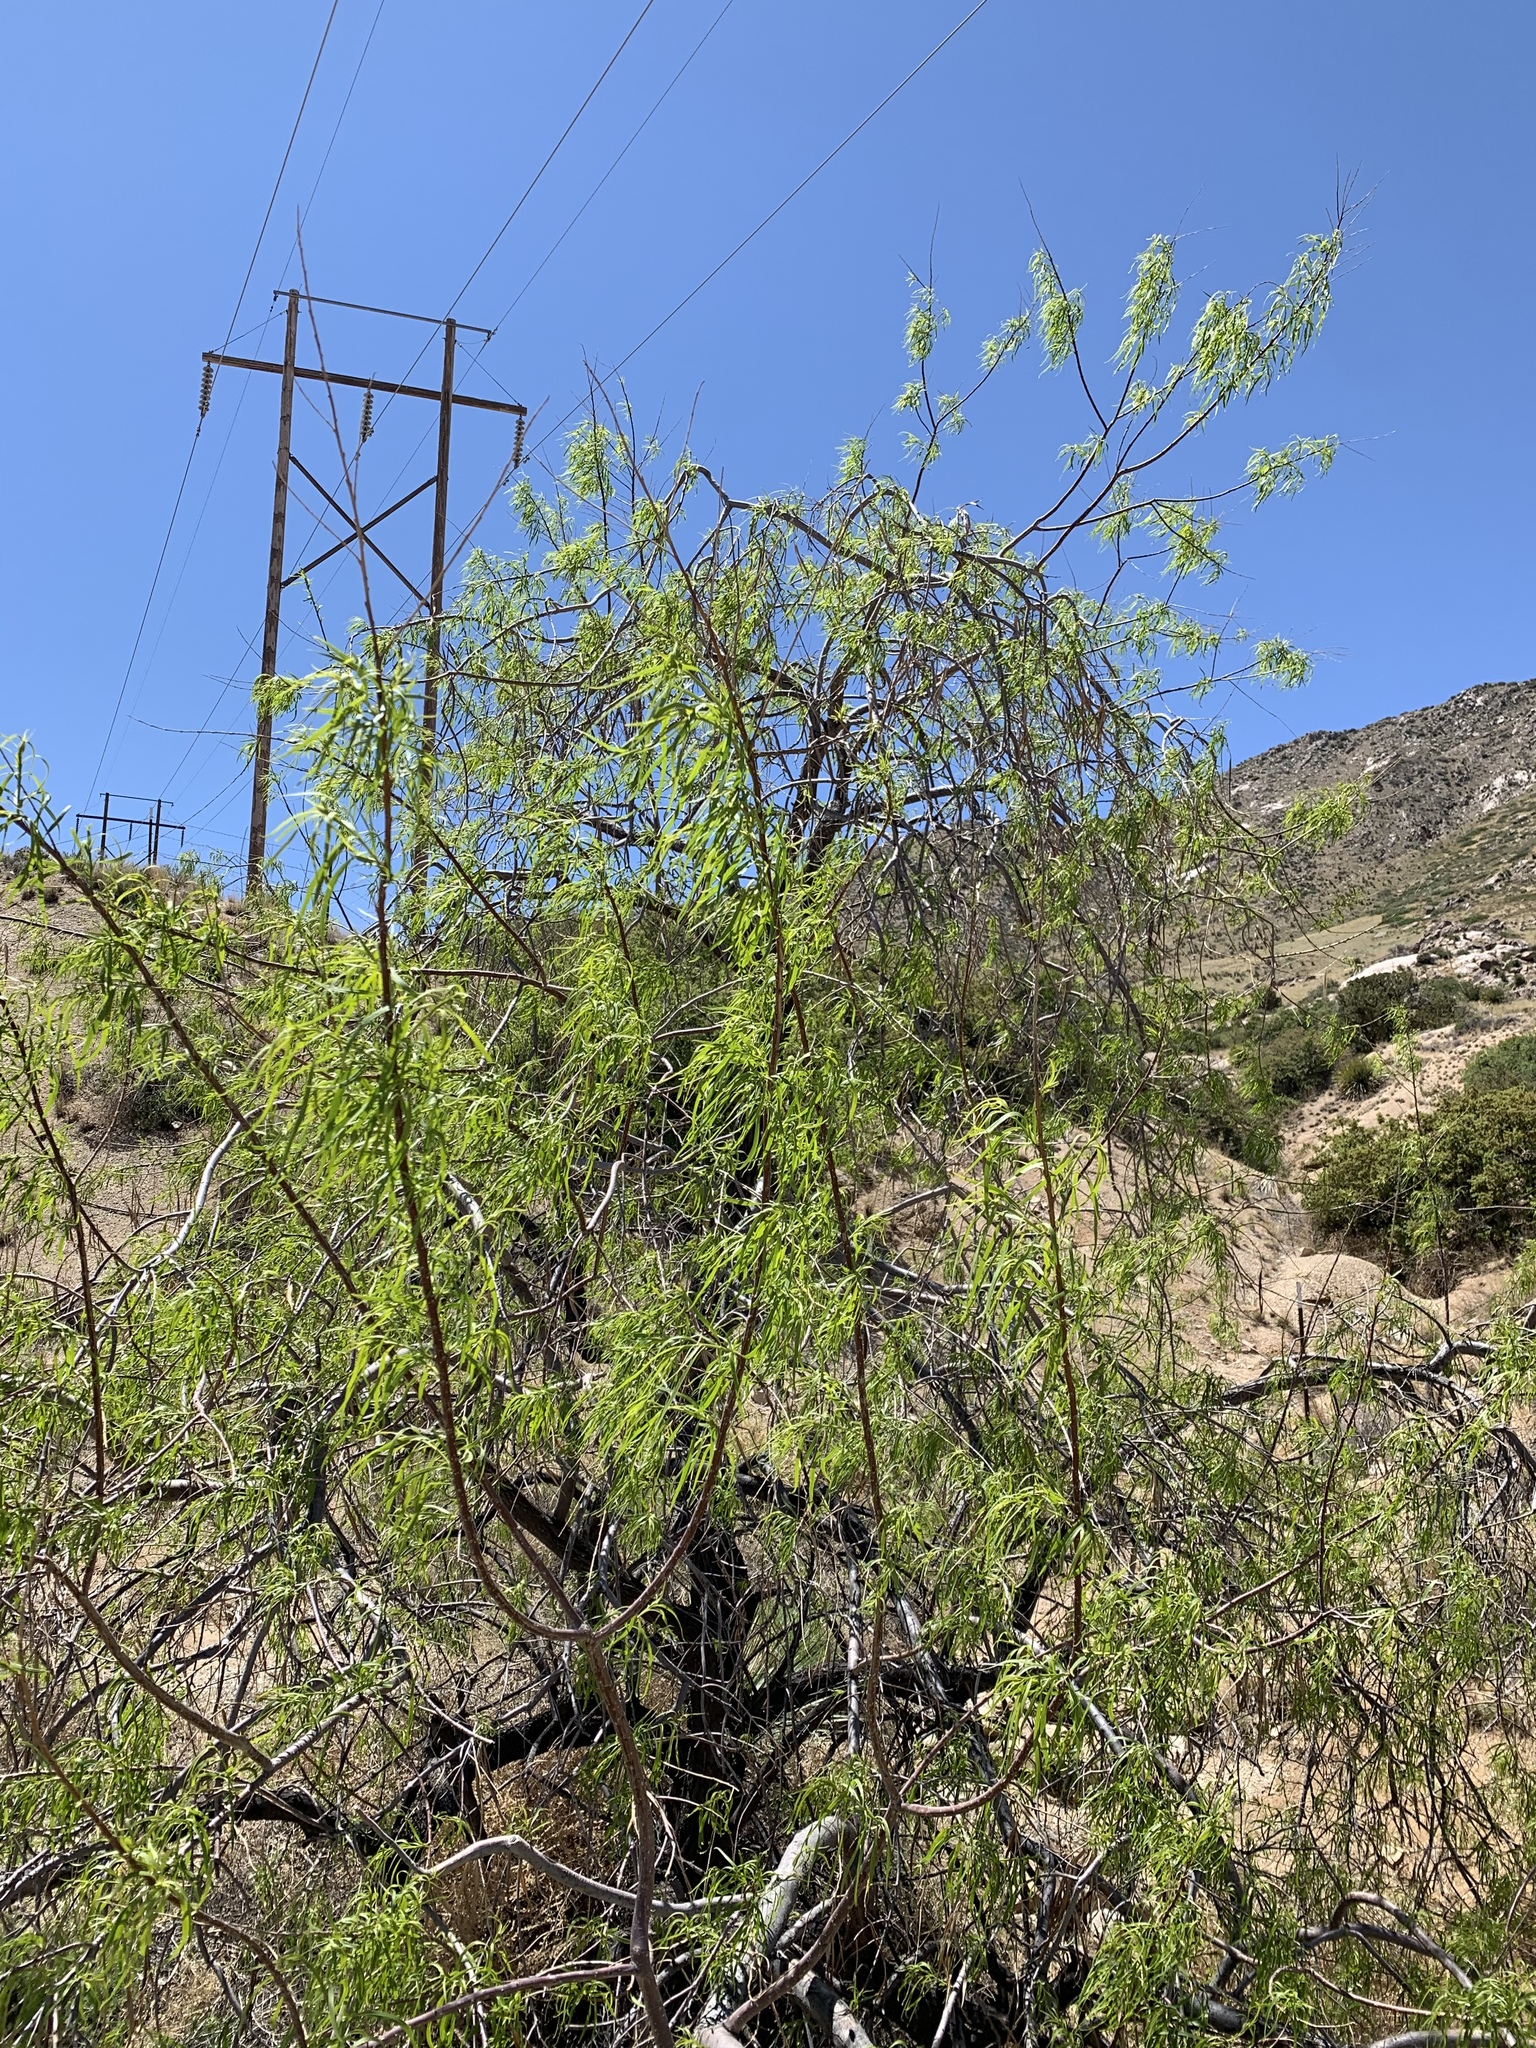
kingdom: Plantae
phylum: Tracheophyta
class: Magnoliopsida
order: Lamiales
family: Bignoniaceae
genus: Chilopsis
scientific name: Chilopsis linearis
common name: Desert-willow
